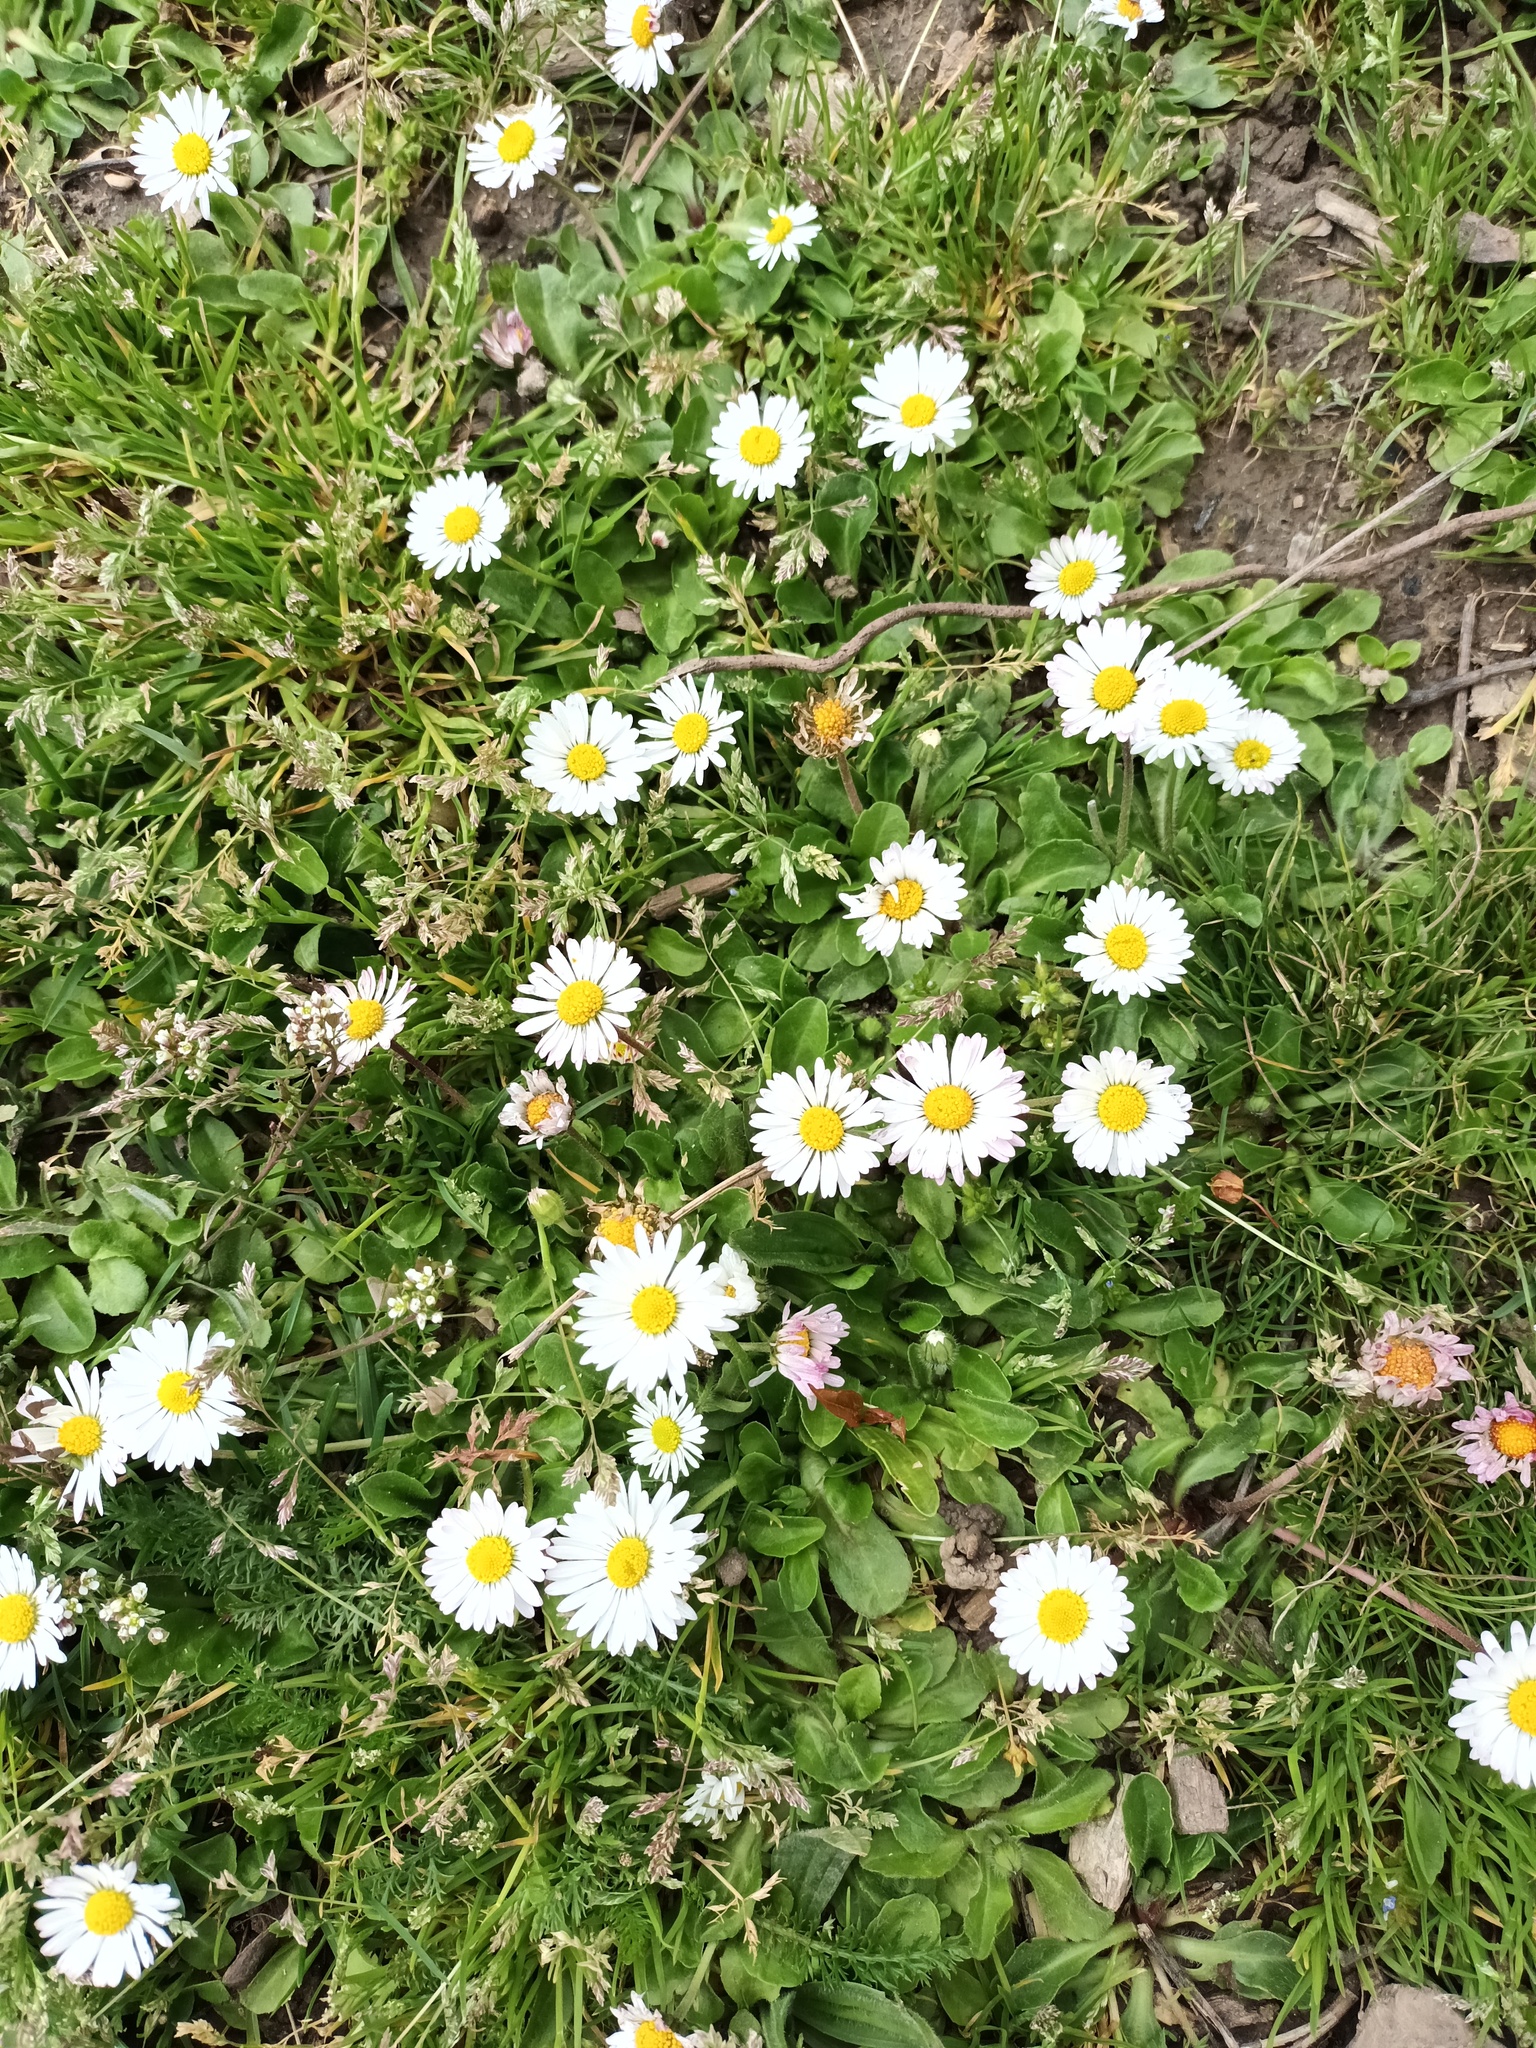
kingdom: Plantae
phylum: Tracheophyta
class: Magnoliopsida
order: Asterales
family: Asteraceae
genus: Bellis
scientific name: Bellis perennis
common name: Lawndaisy
